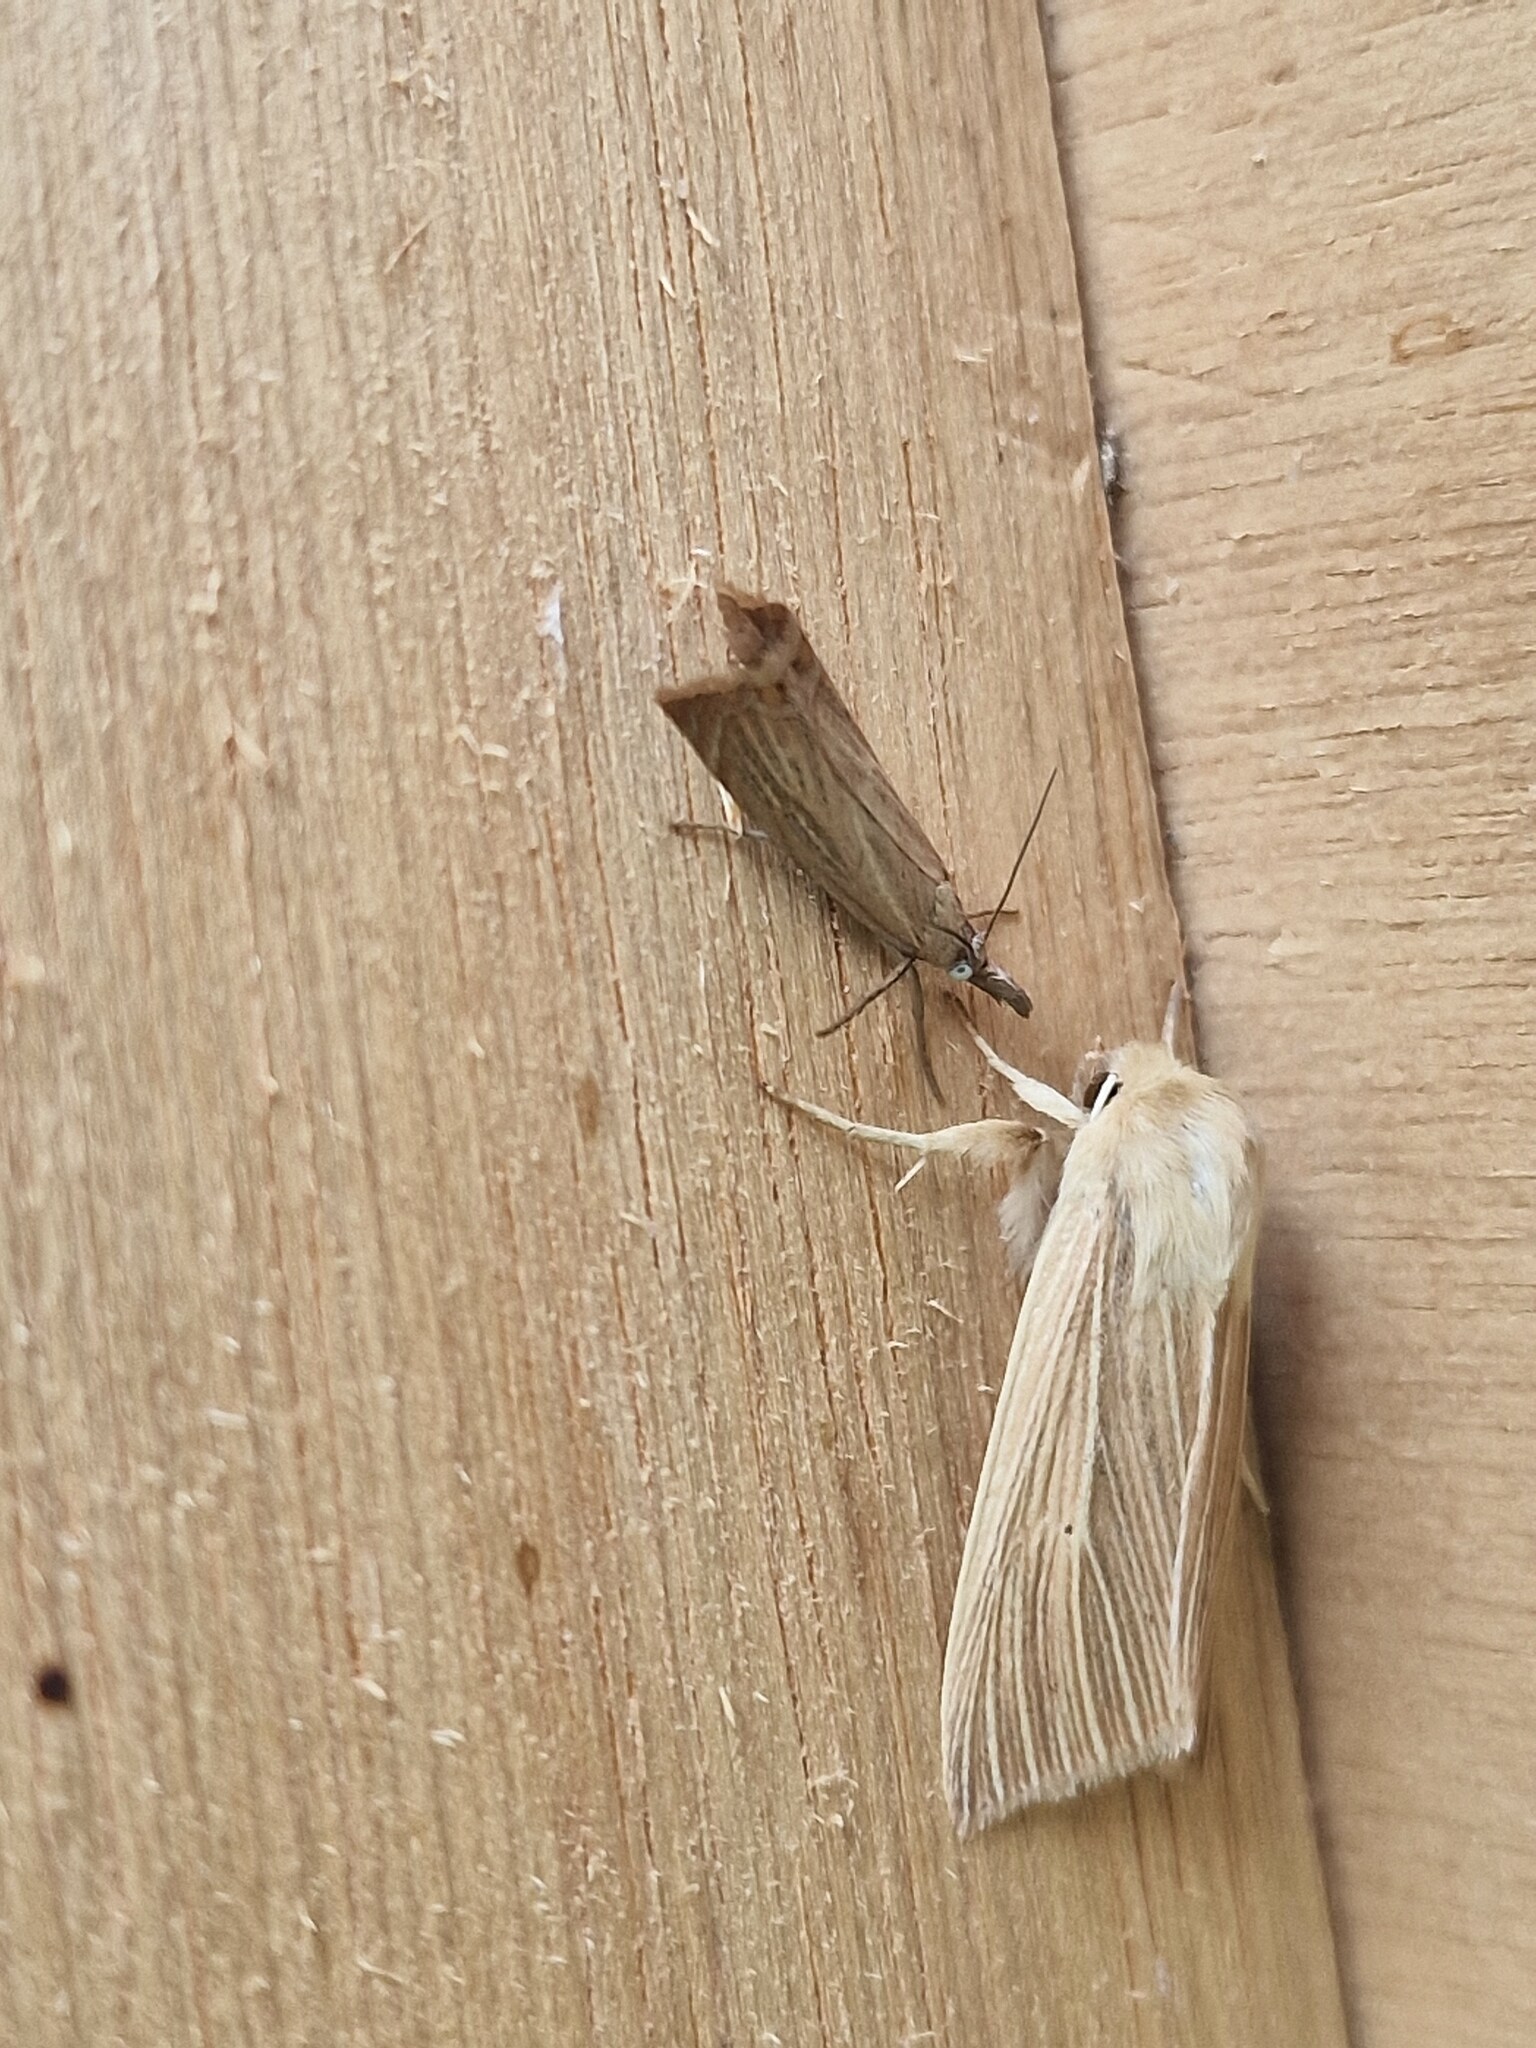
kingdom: Animalia
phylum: Arthropoda
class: Insecta
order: Lepidoptera
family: Crambidae
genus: Chrysoteuchia
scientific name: Chrysoteuchia culmella
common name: Garden grass-veneer
